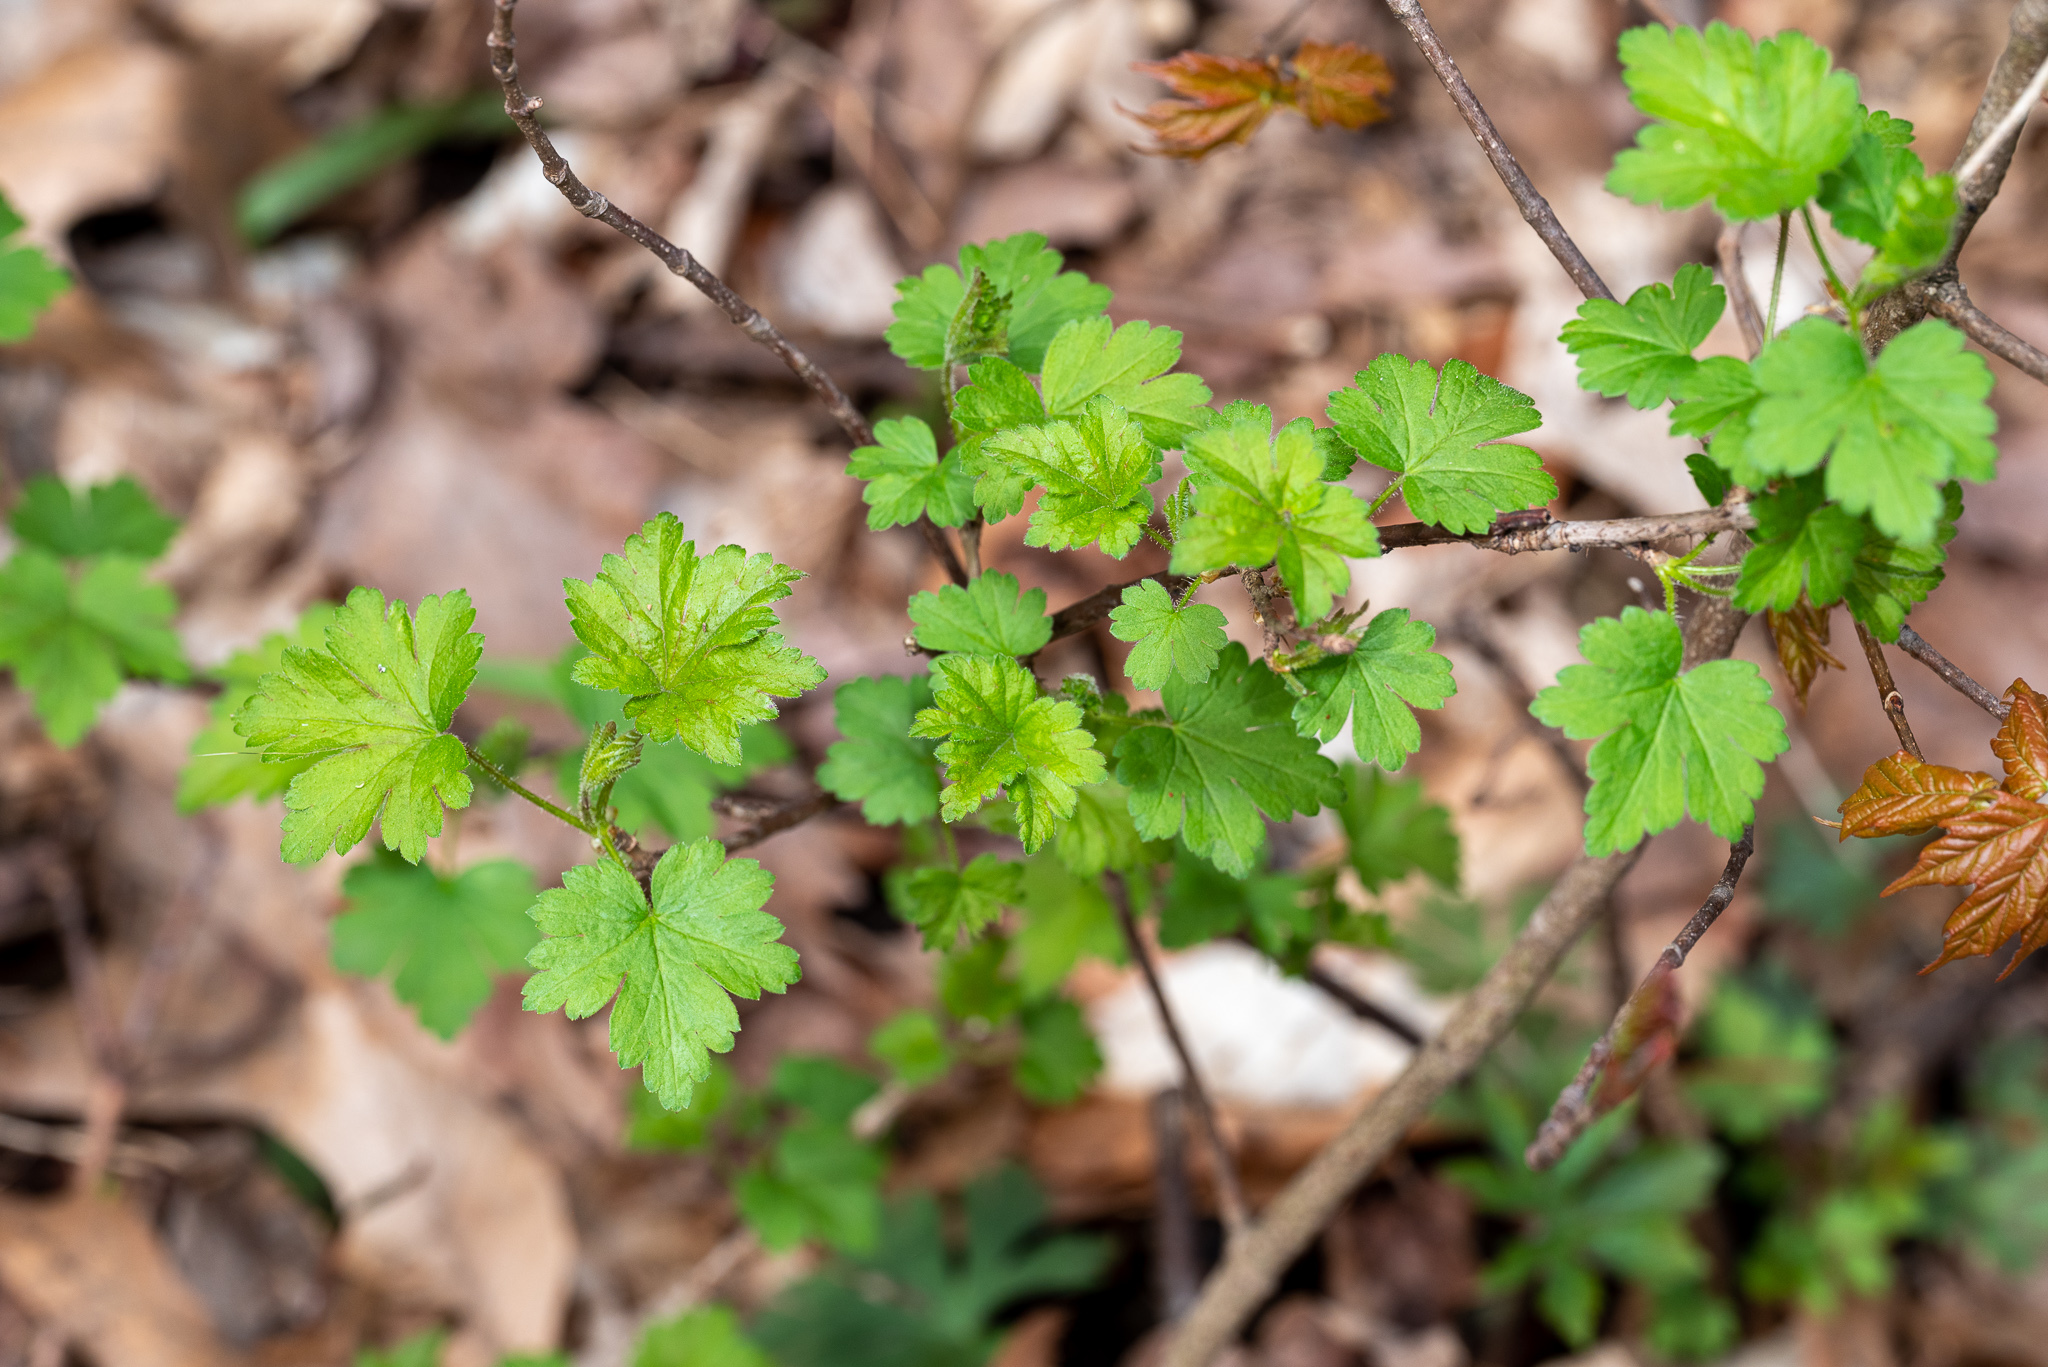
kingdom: Plantae
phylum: Tracheophyta
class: Magnoliopsida
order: Saxifragales
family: Grossulariaceae
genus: Ribes
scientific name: Ribes cynosbati
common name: American gooseberry
